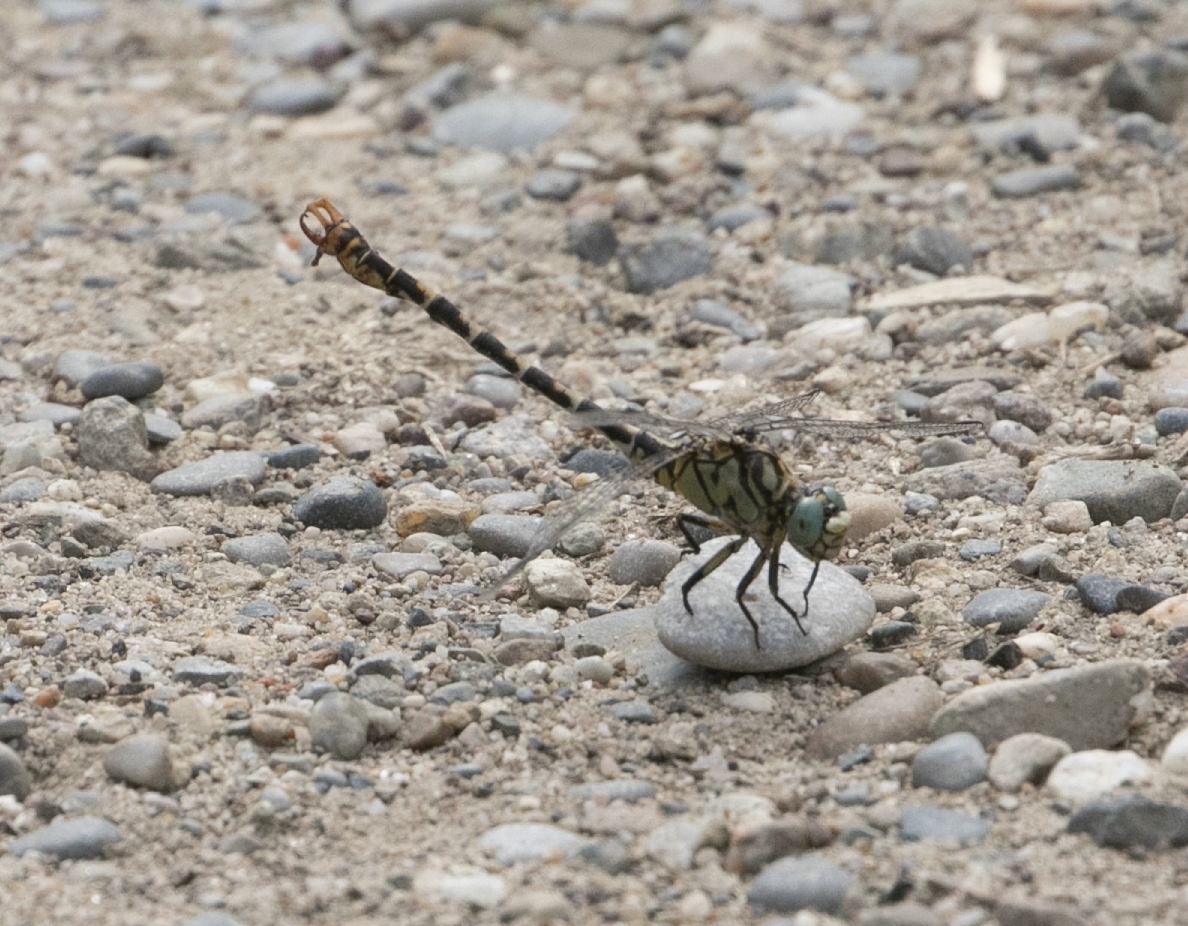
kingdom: Animalia
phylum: Arthropoda
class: Insecta
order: Odonata
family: Gomphidae
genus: Onychogomphus
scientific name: Onychogomphus forcipatus
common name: Small pincertail
